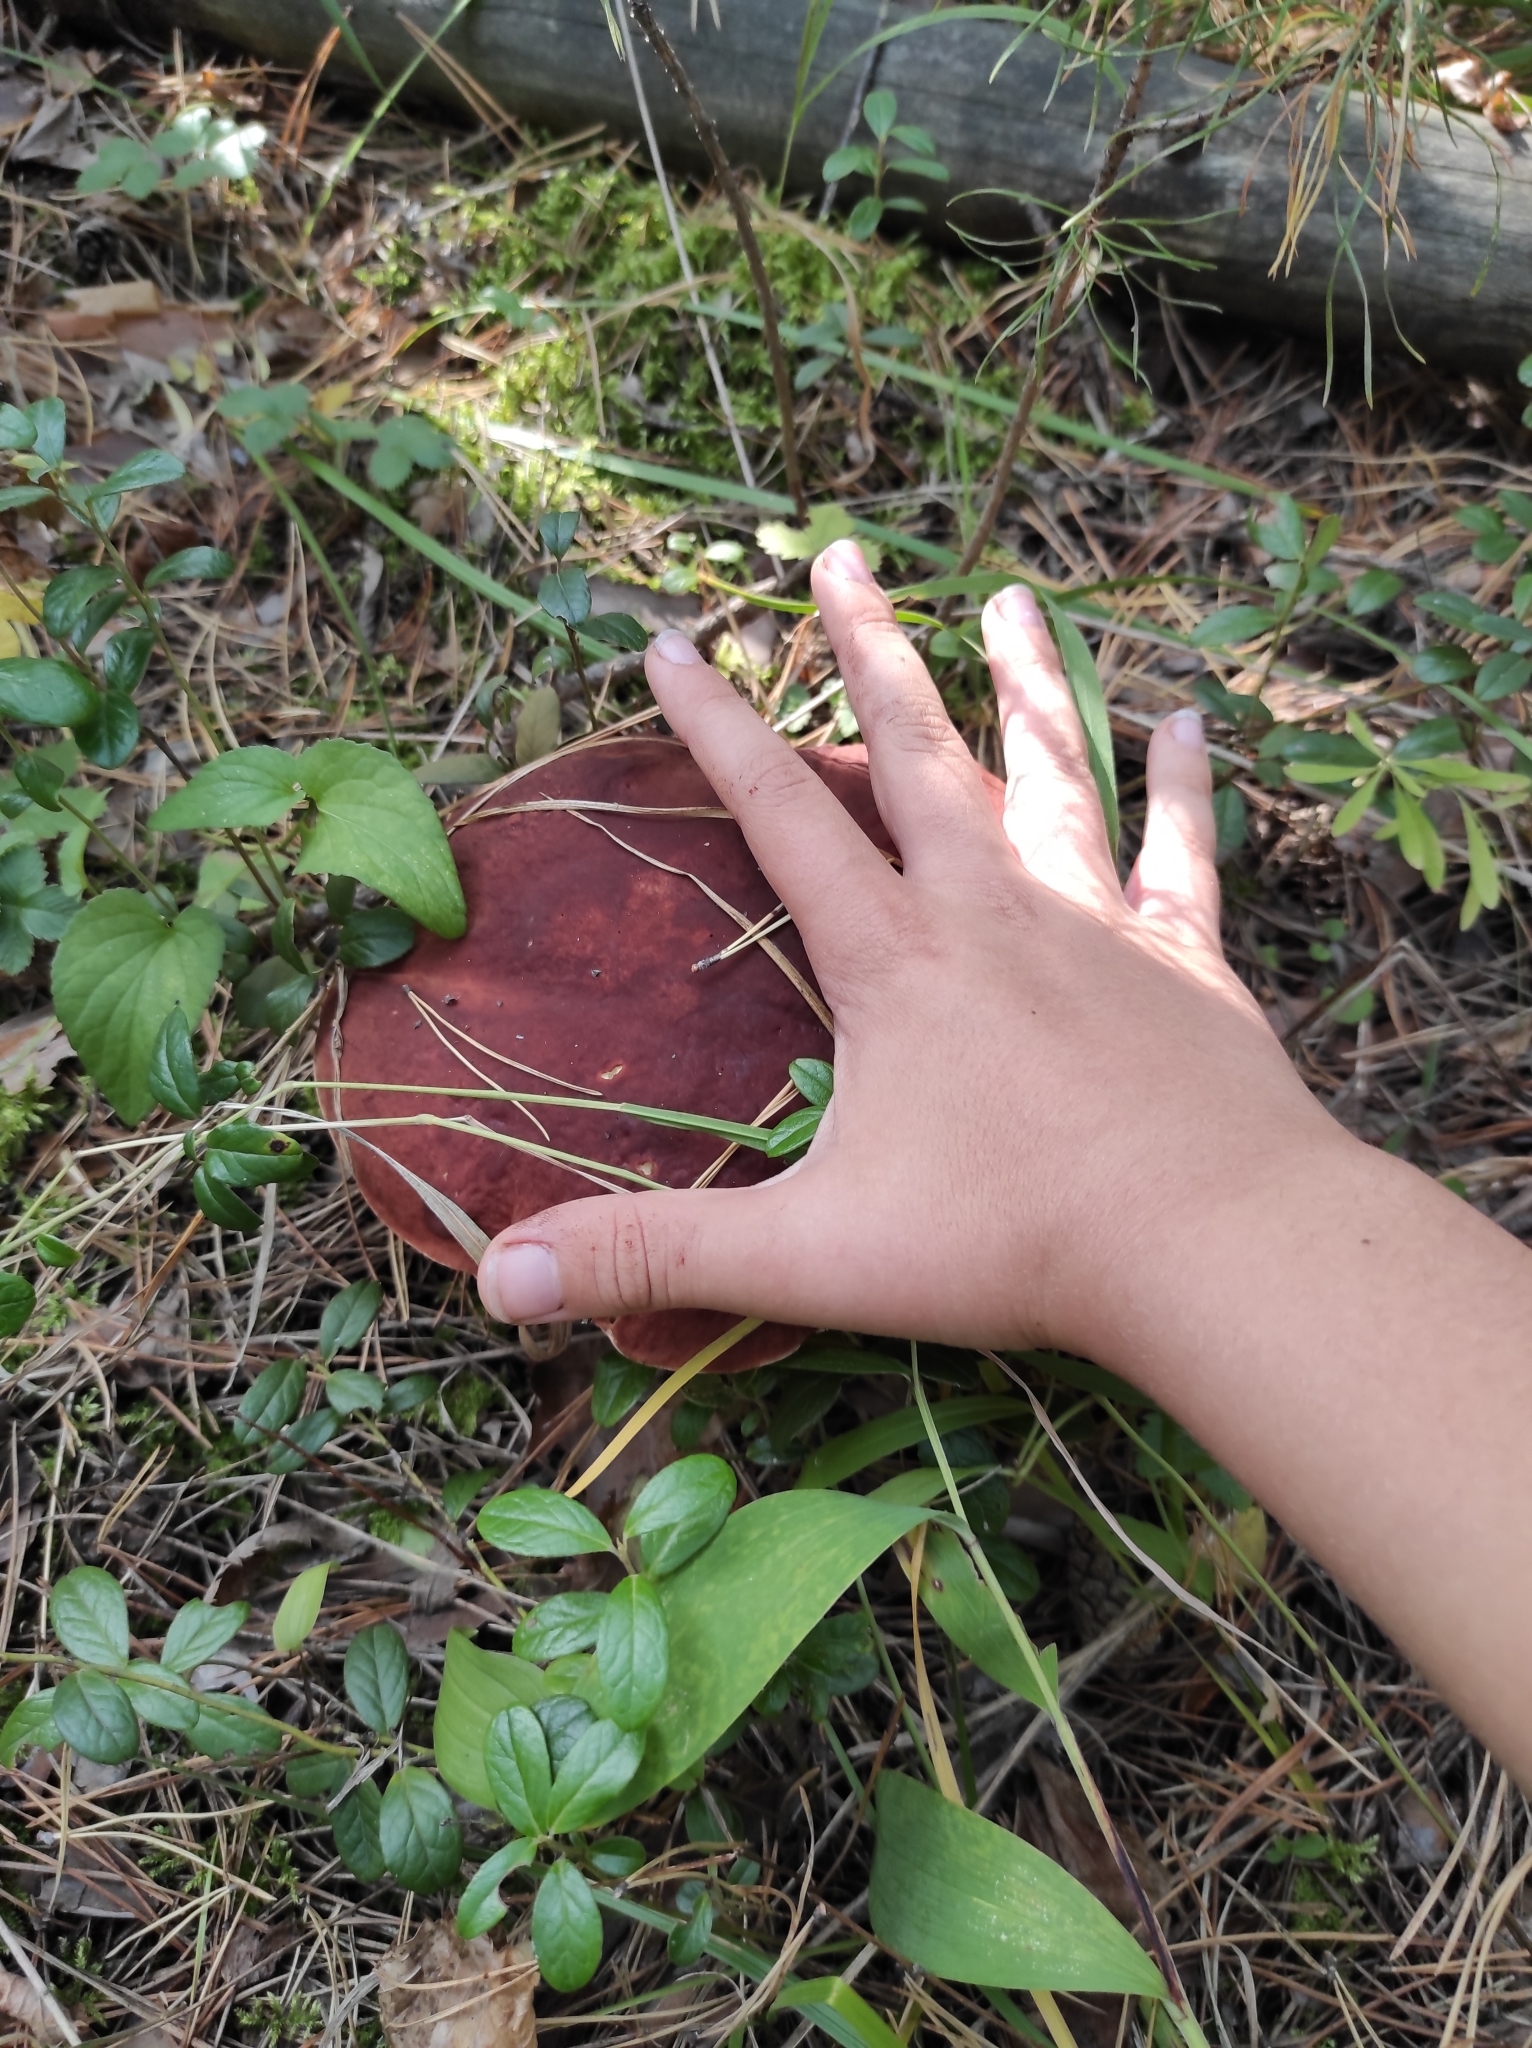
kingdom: Fungi
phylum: Basidiomycota
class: Agaricomycetes
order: Boletales
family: Boletaceae
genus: Boletus
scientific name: Boletus pinophilus
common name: Pine bolete
